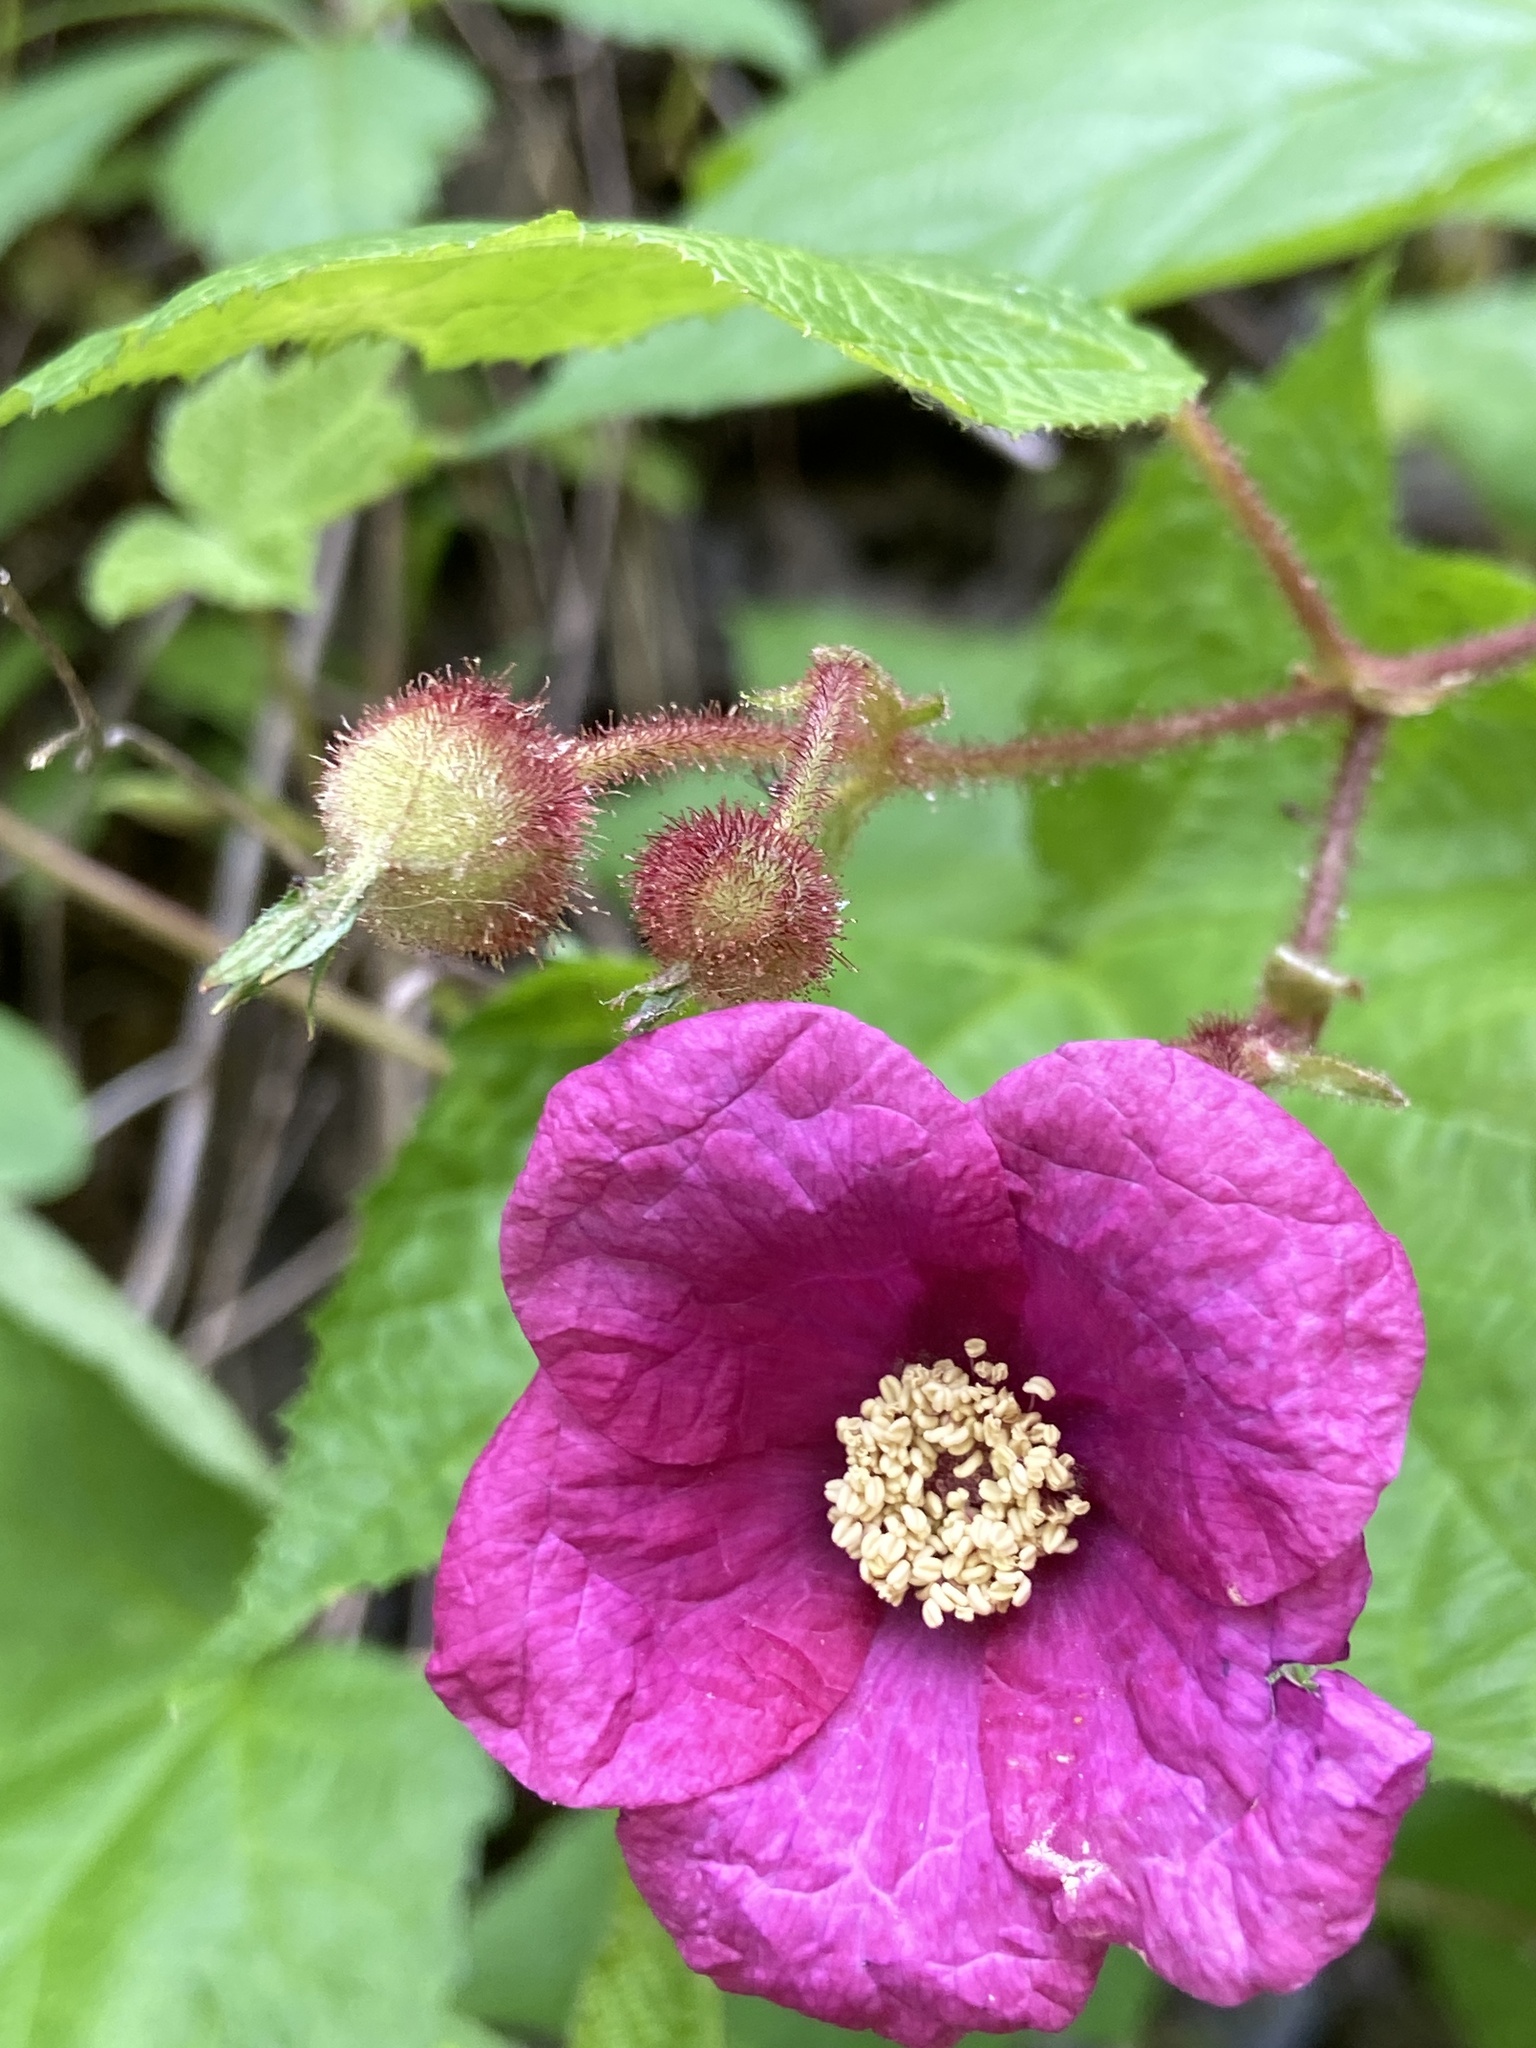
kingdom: Plantae
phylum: Tracheophyta
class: Magnoliopsida
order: Rosales
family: Rosaceae
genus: Rubus
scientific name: Rubus odoratus
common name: Purple-flowered raspberry
